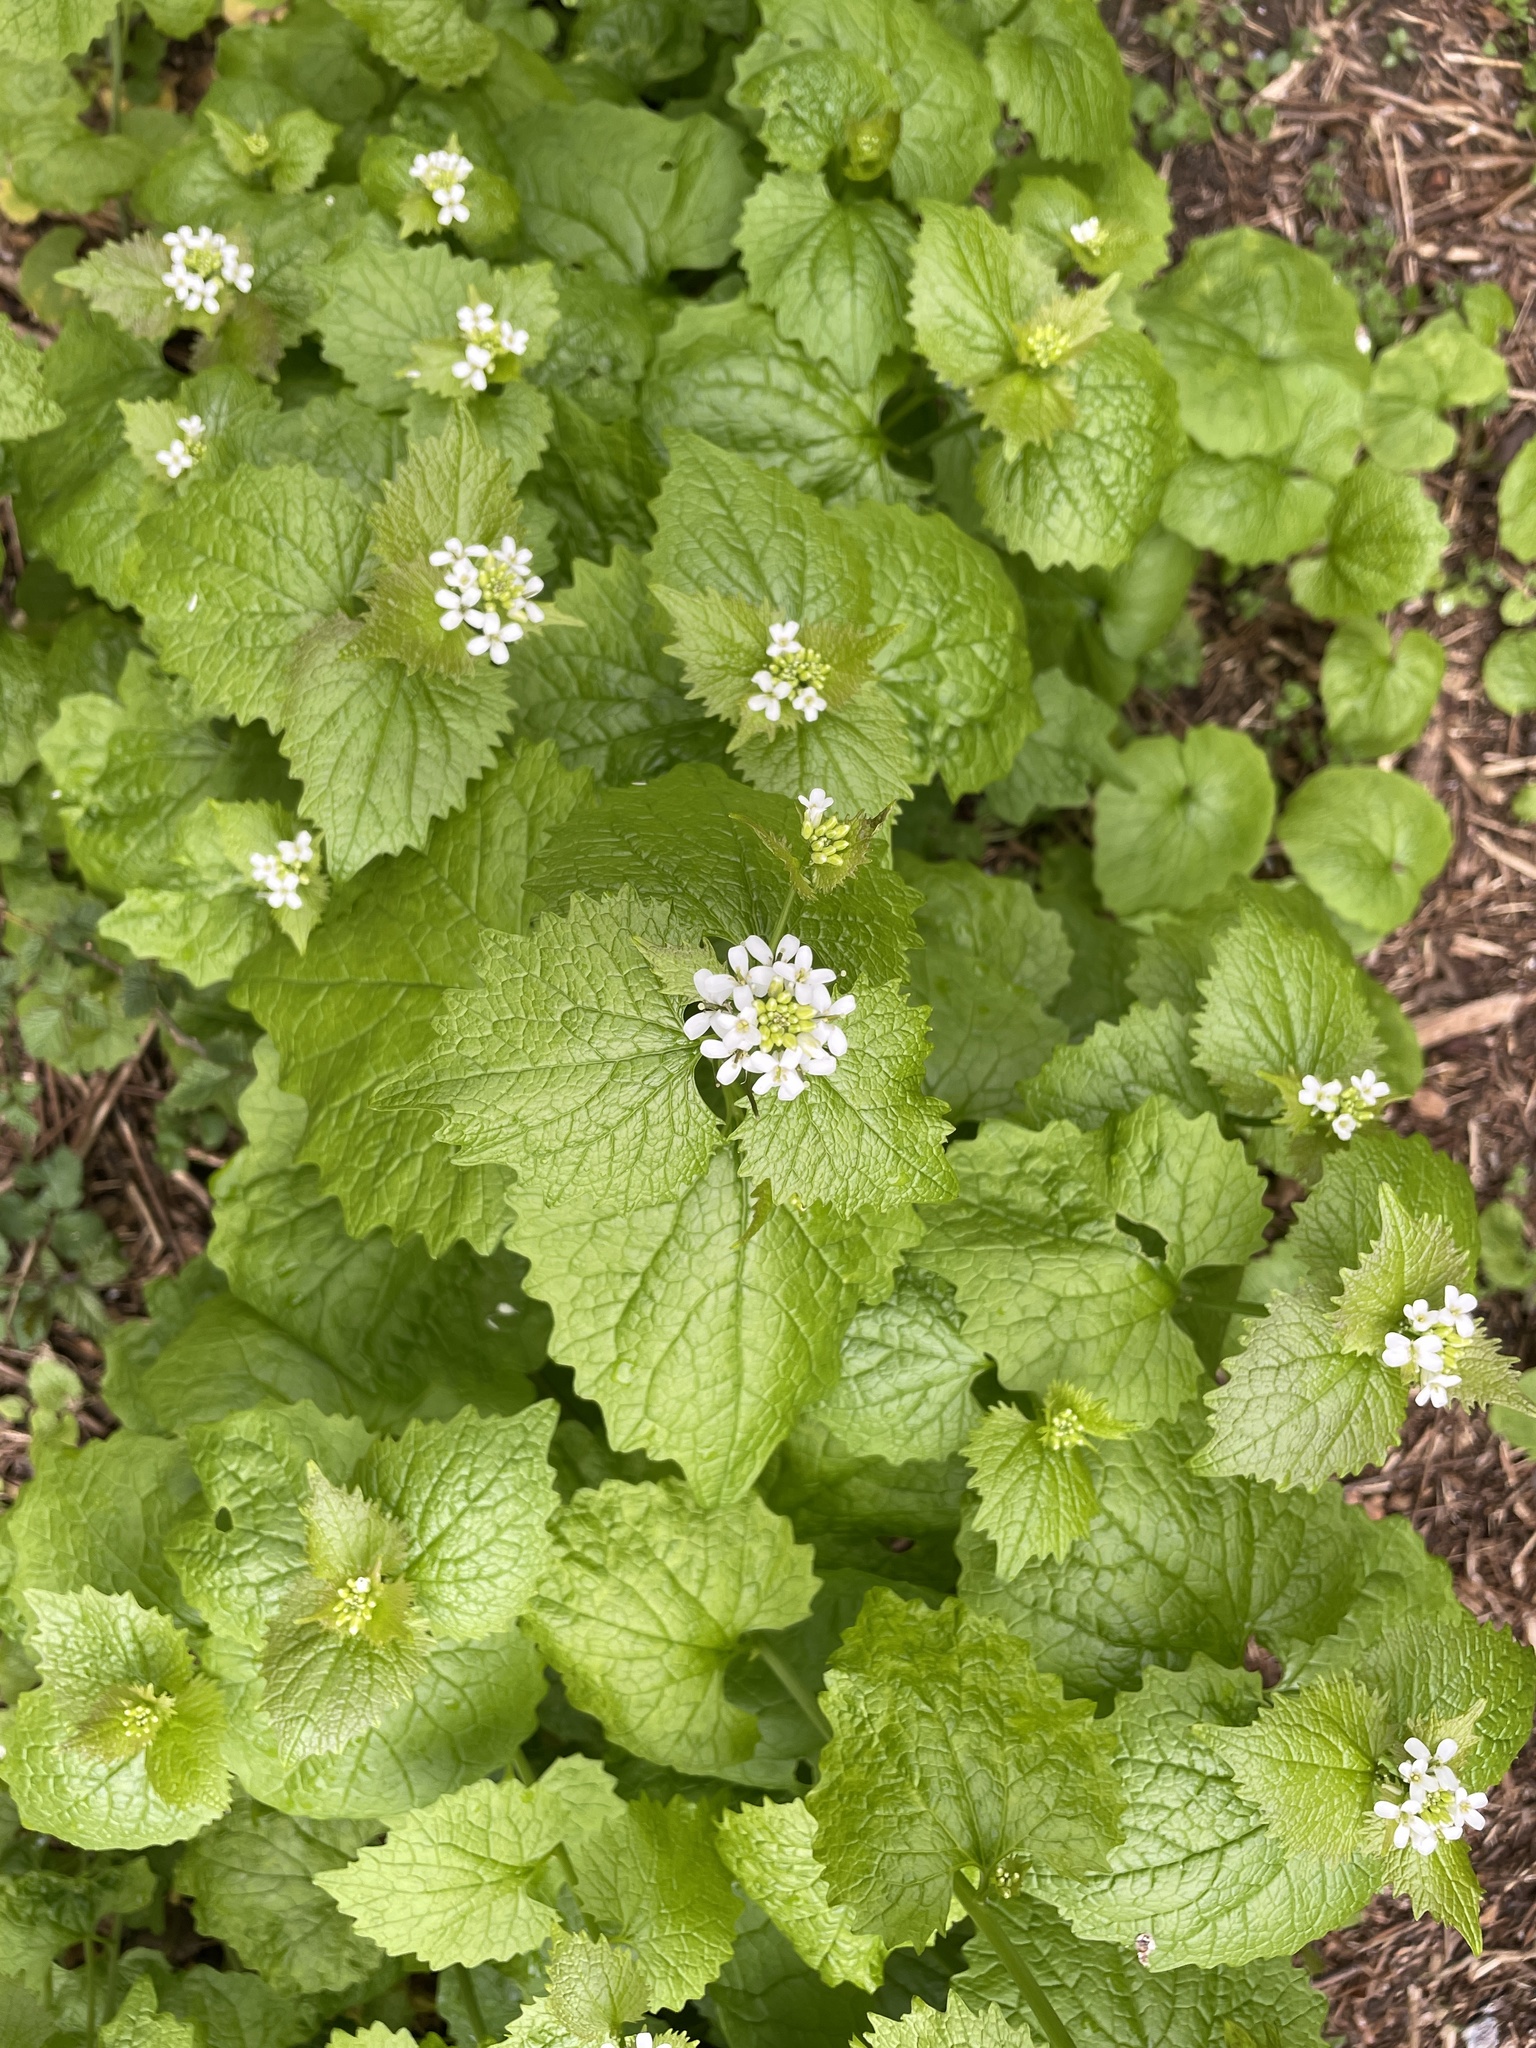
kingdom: Plantae
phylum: Tracheophyta
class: Magnoliopsida
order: Brassicales
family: Brassicaceae
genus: Alliaria
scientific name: Alliaria petiolata
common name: Garlic mustard
